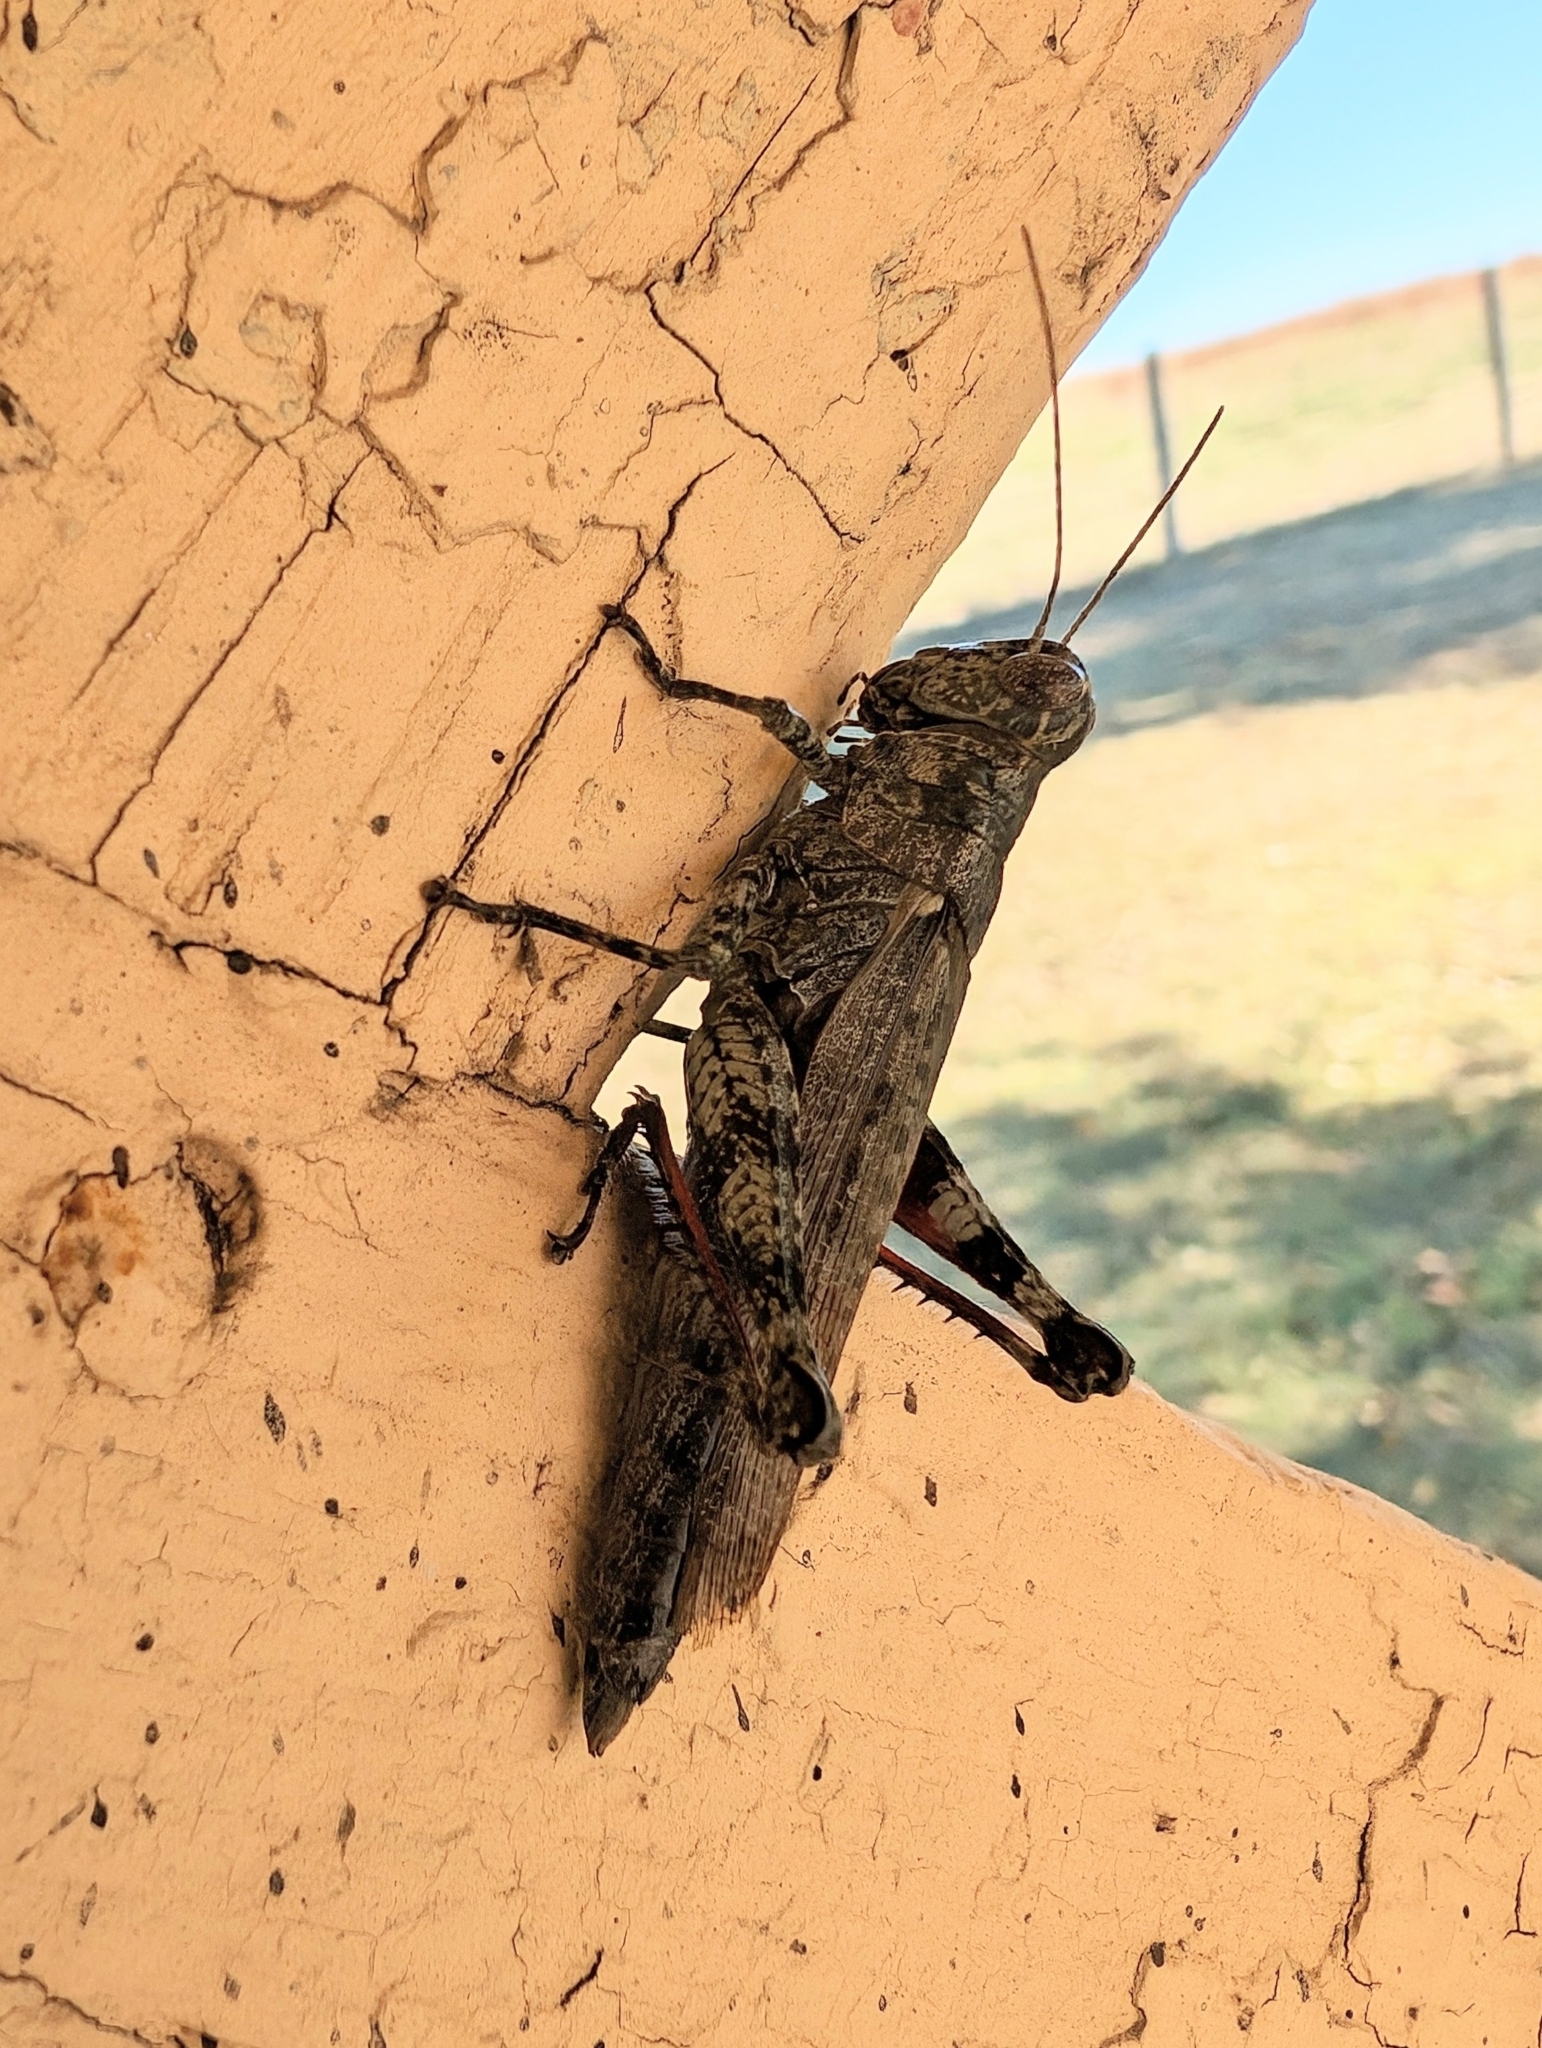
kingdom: Animalia
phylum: Arthropoda
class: Insecta
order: Orthoptera
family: Acrididae
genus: Melanoplus
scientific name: Melanoplus punctulatus
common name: Pine-tree spur-throat grasshopper
